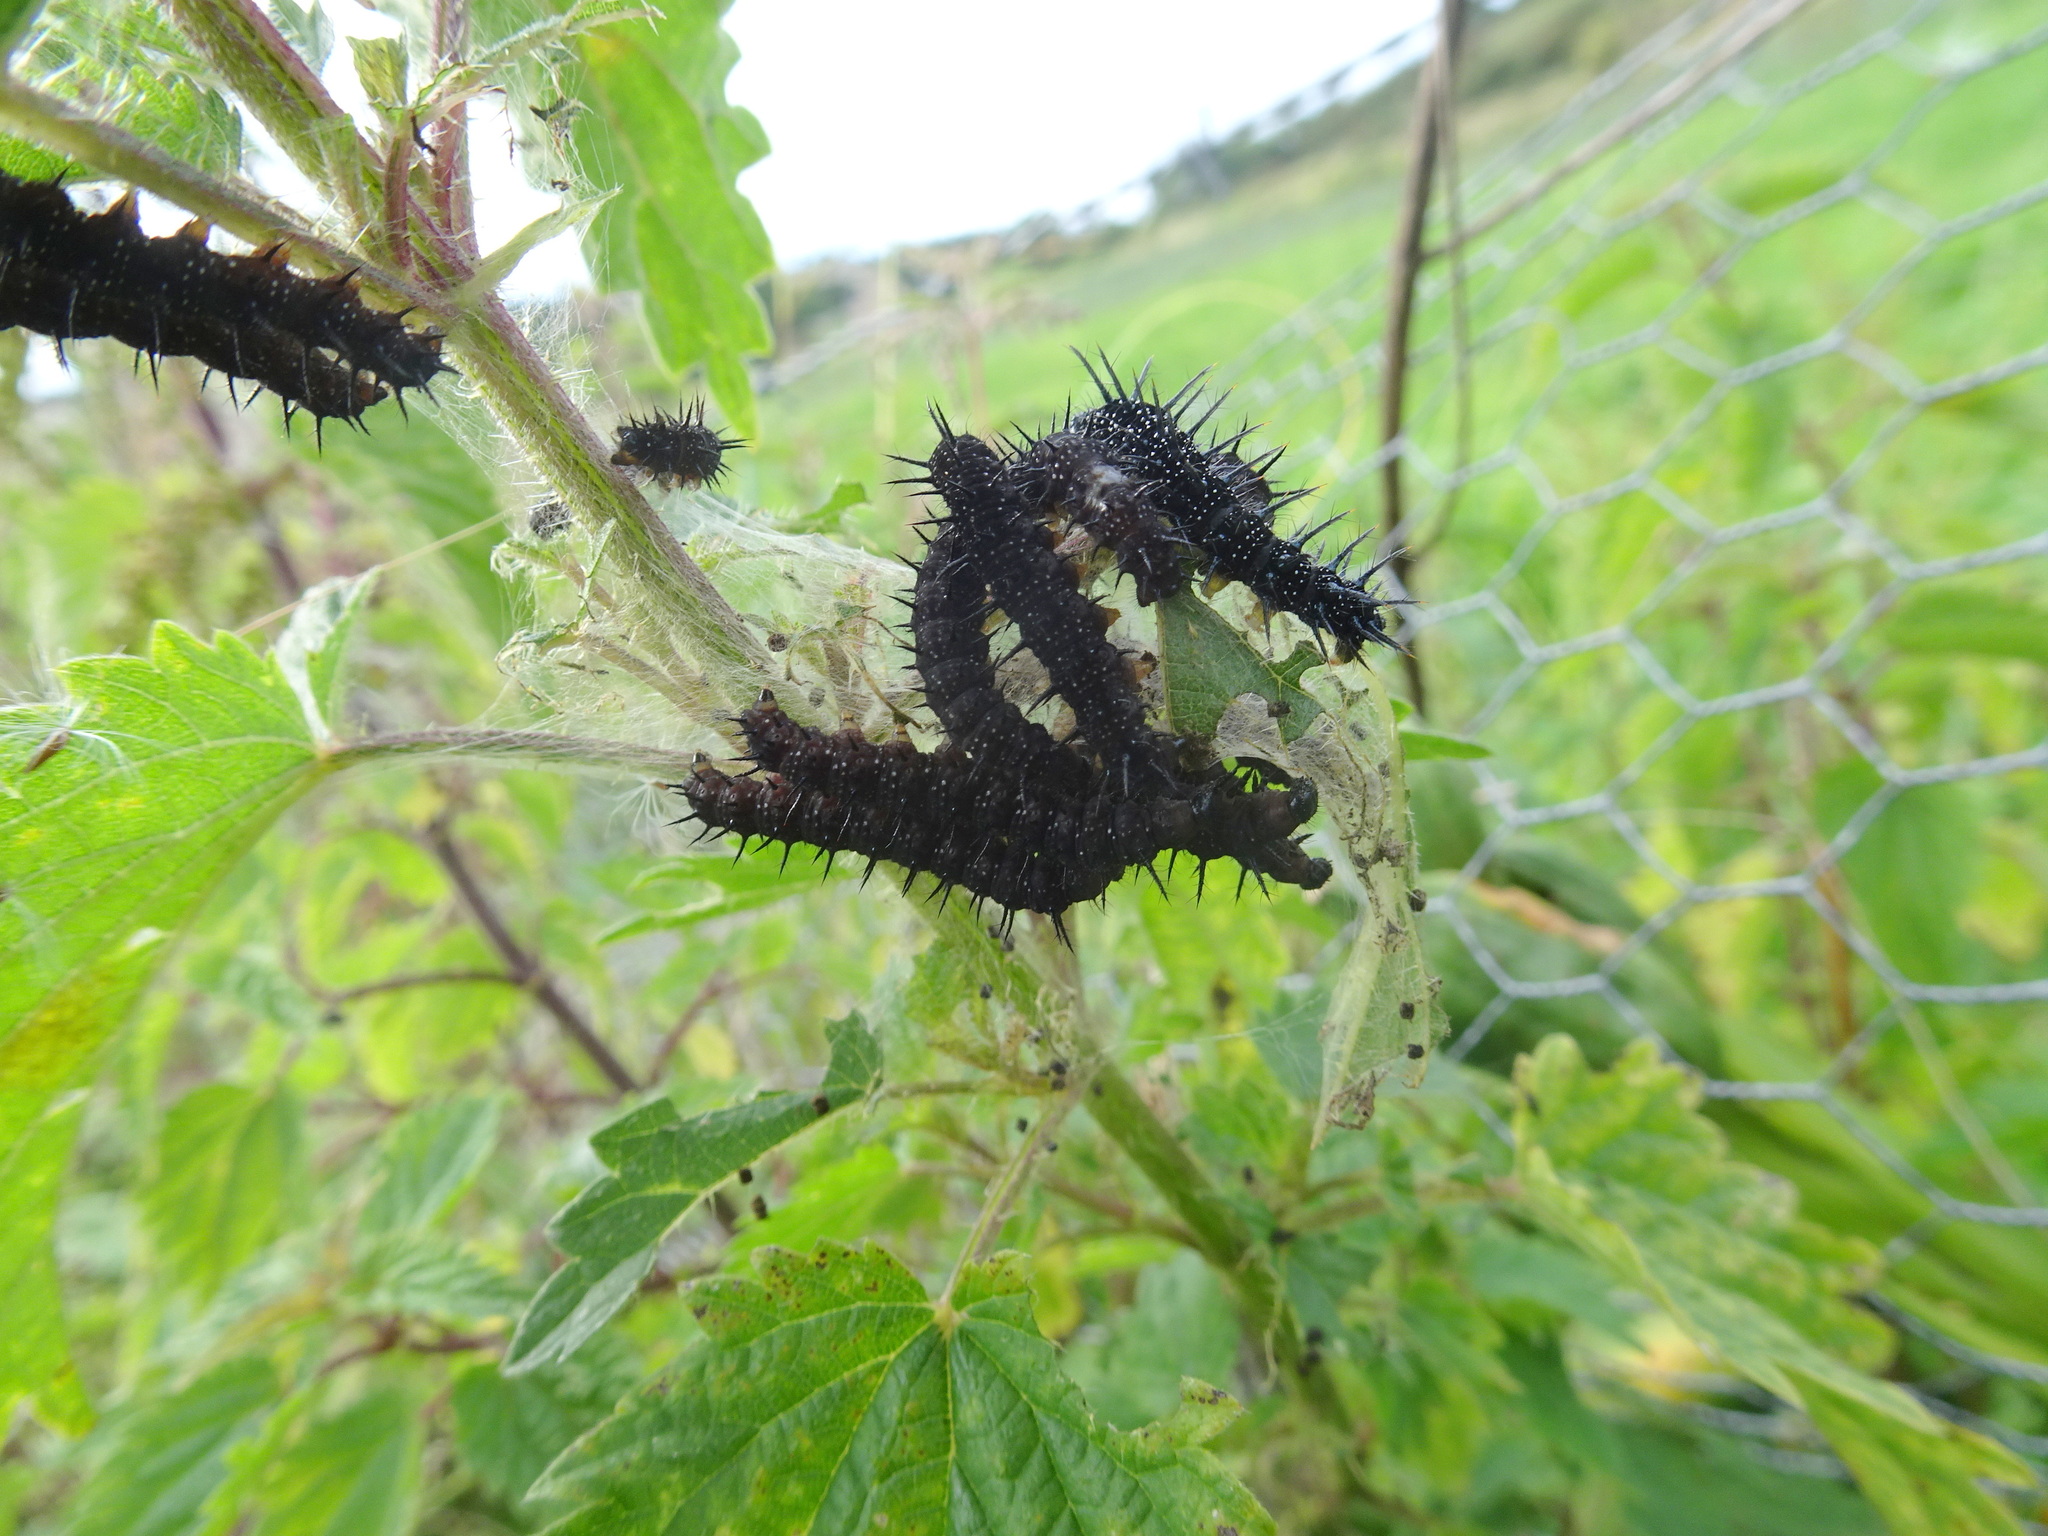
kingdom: Animalia
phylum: Arthropoda
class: Insecta
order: Lepidoptera
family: Nymphalidae
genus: Aglais
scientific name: Aglais io
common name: Peacock
